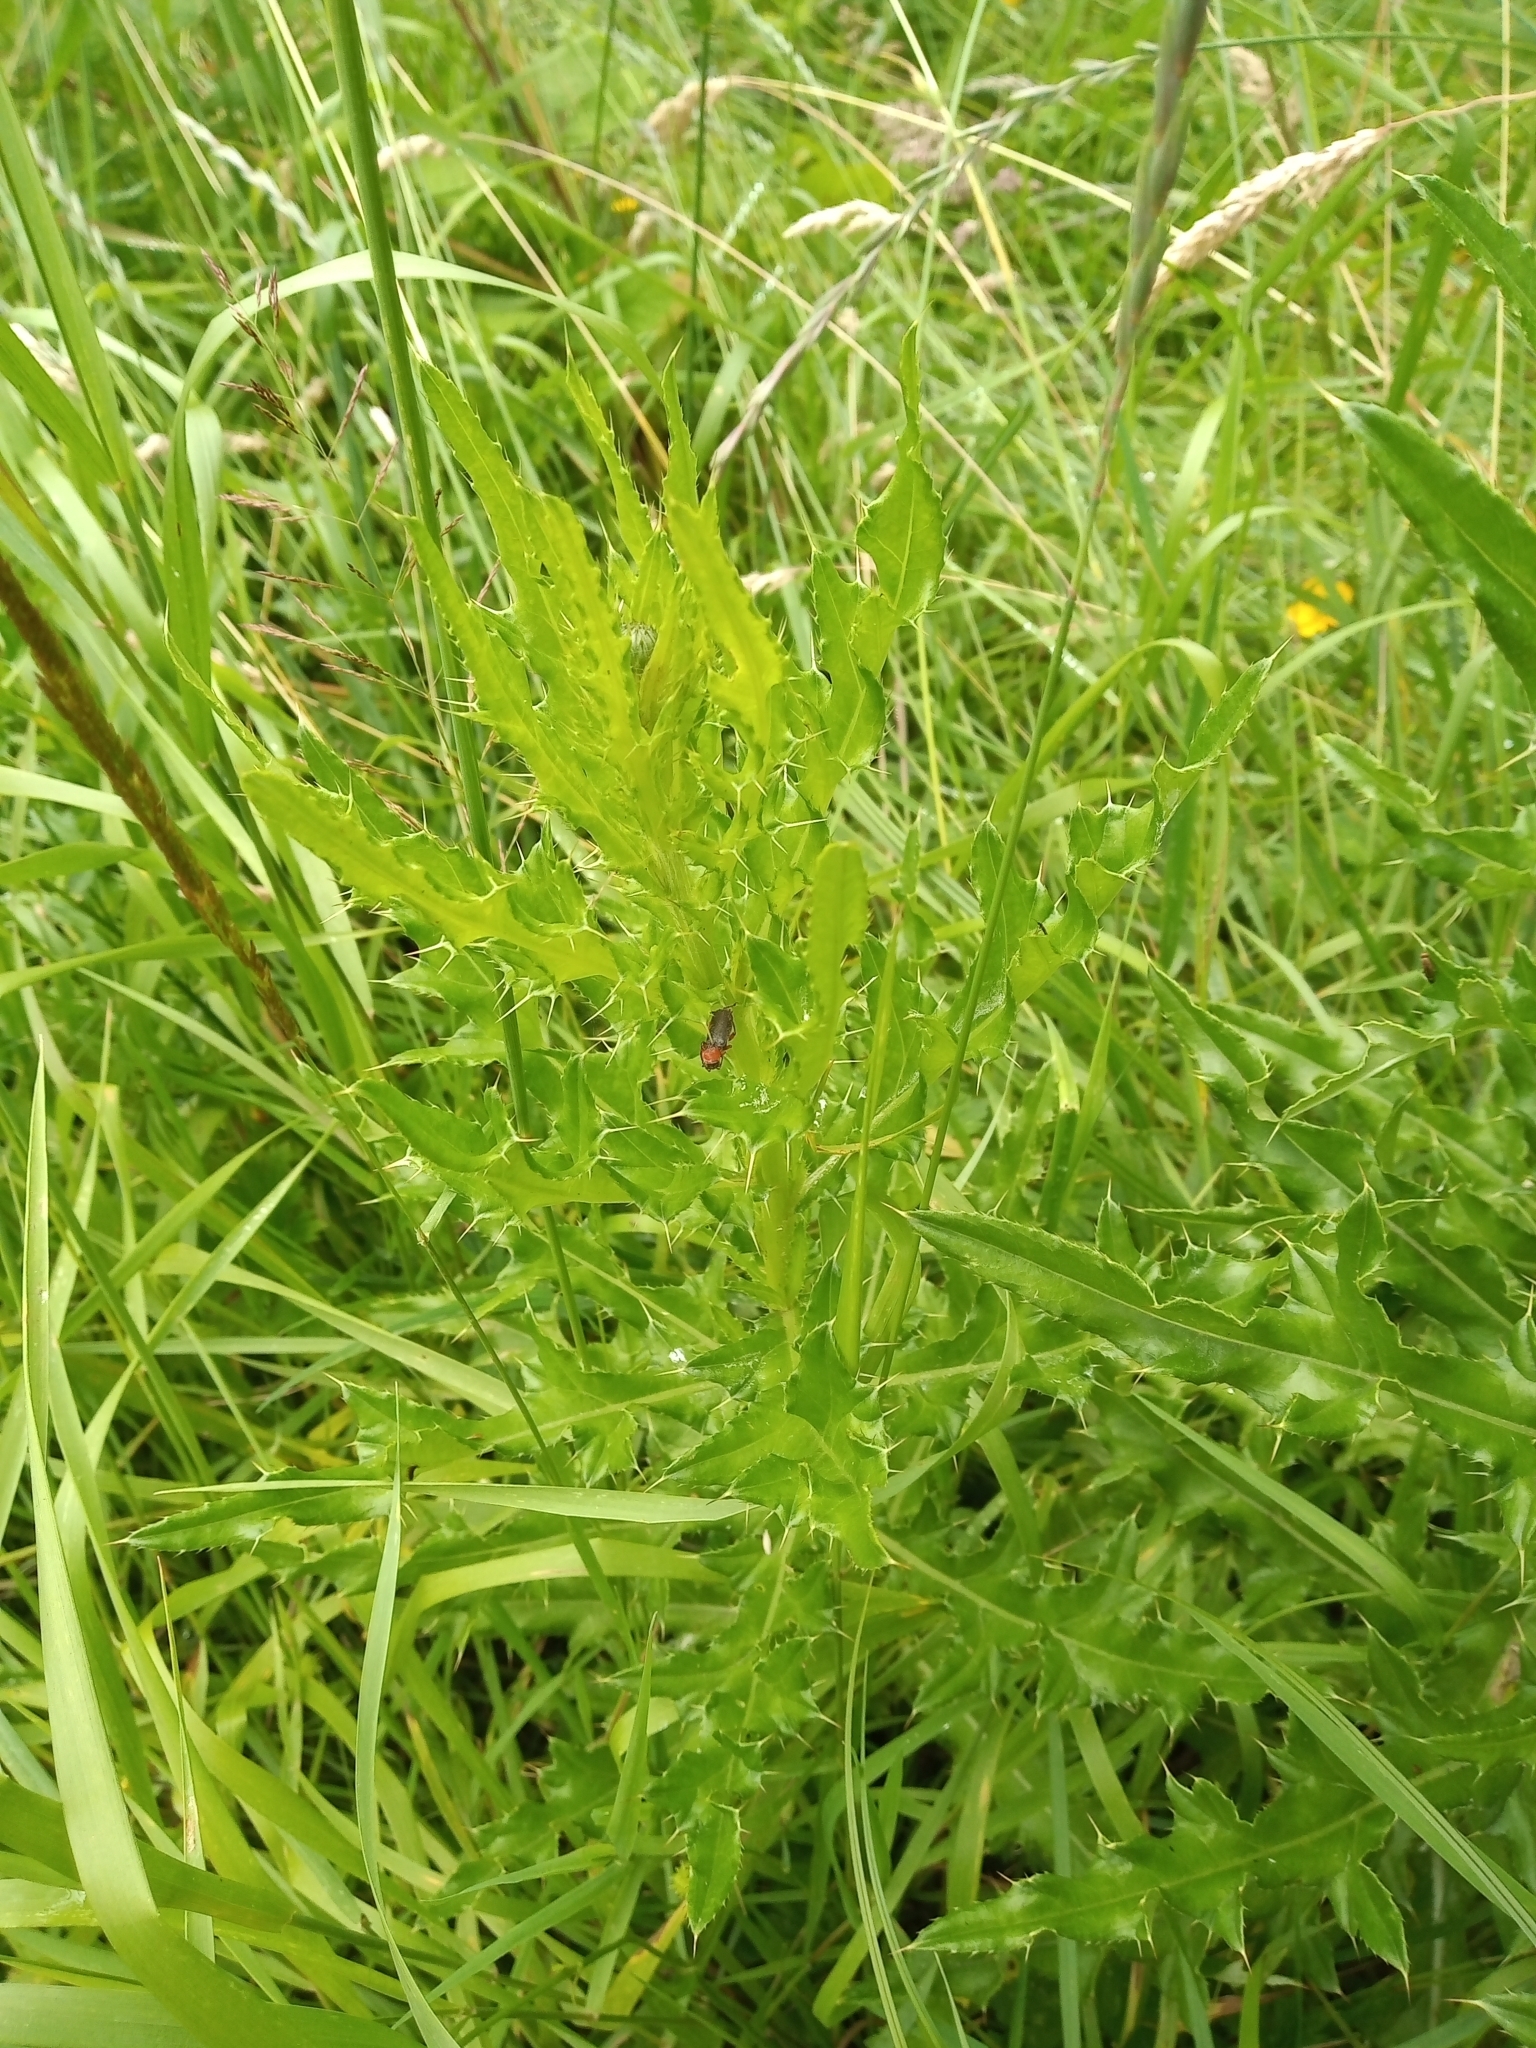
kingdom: Plantae
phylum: Tracheophyta
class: Magnoliopsida
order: Asterales
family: Asteraceae
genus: Cirsium
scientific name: Cirsium arvense
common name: Creeping thistle
